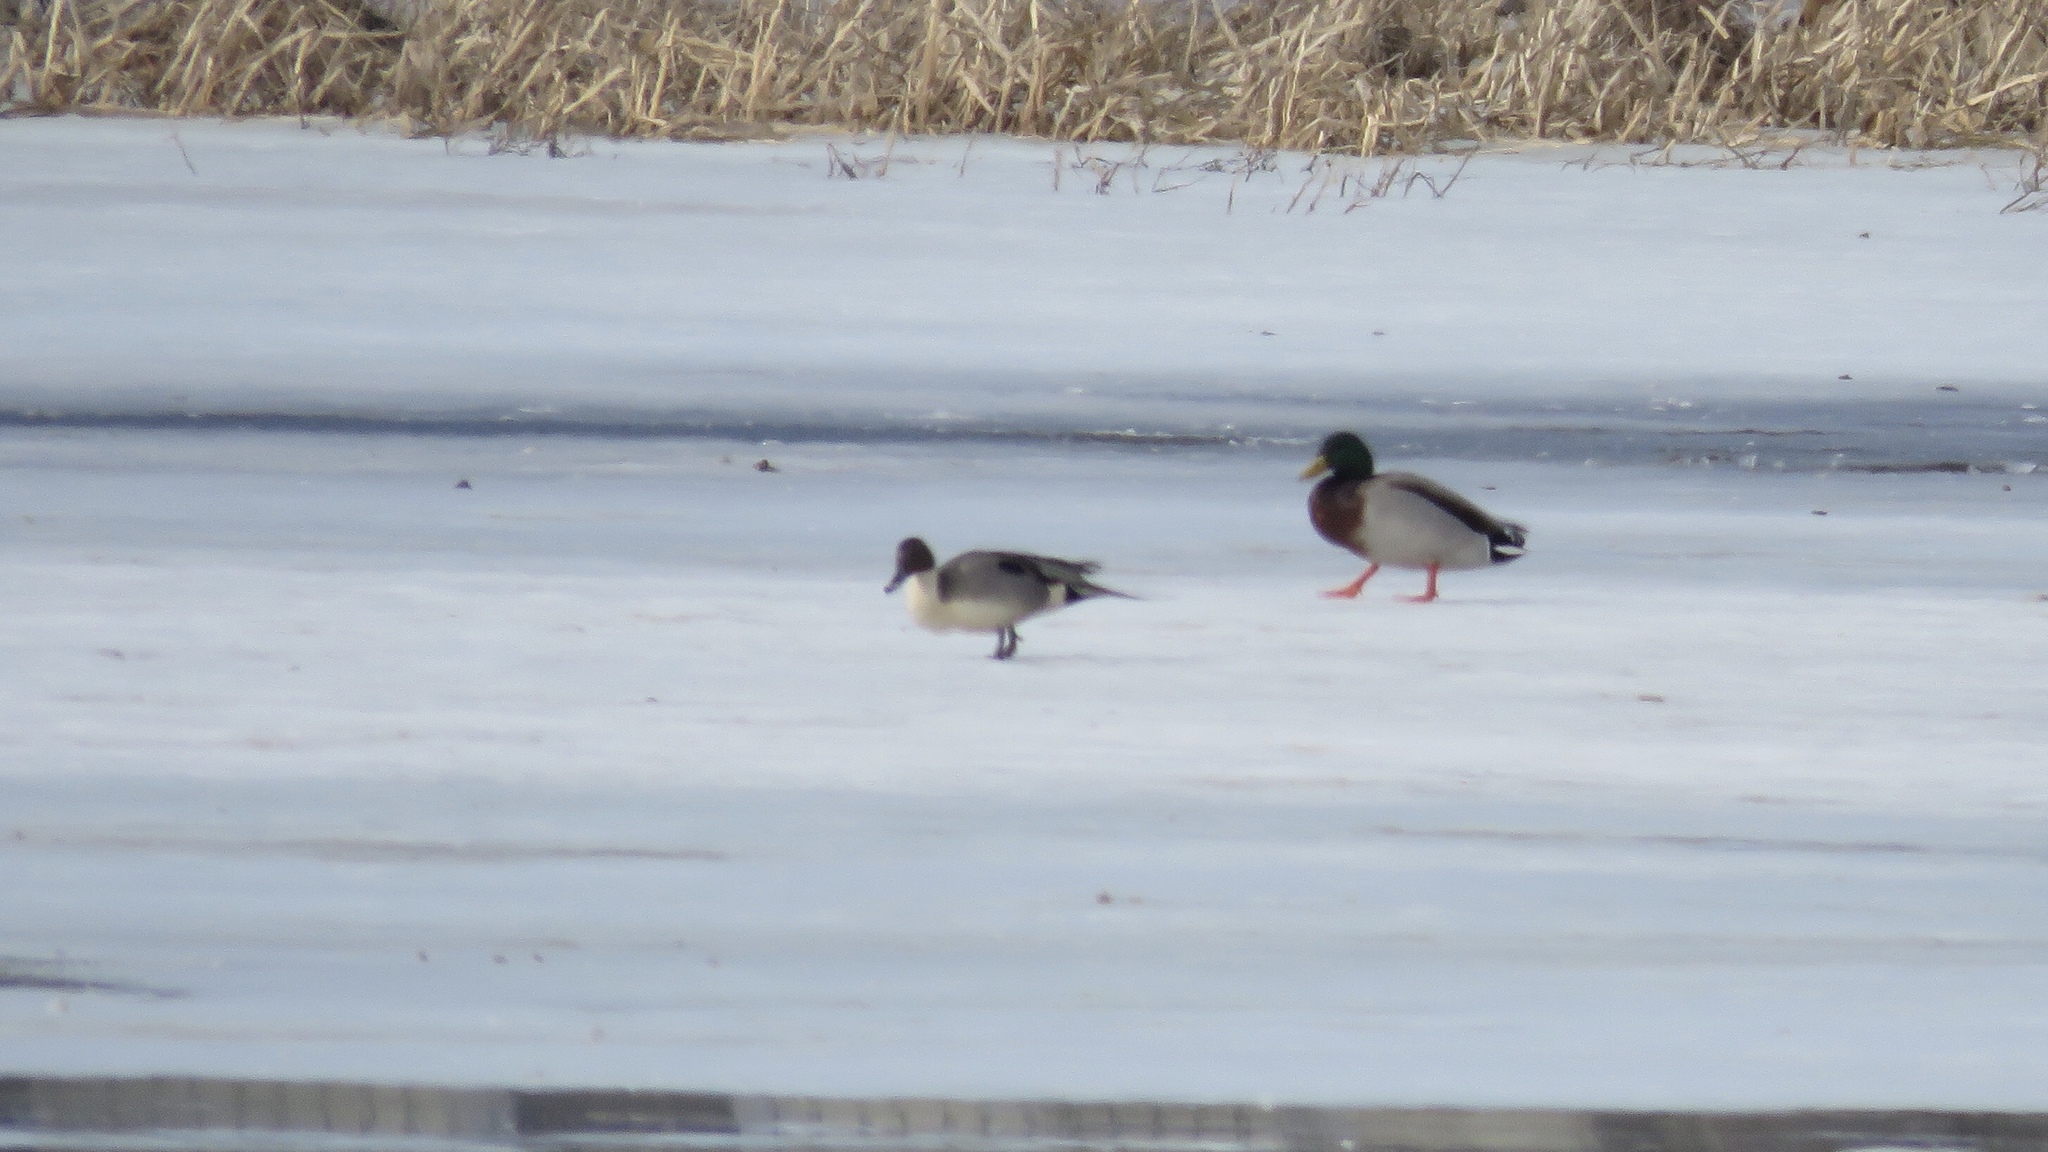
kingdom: Animalia
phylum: Chordata
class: Aves
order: Anseriformes
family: Anatidae
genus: Anas
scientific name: Anas acuta
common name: Northern pintail
